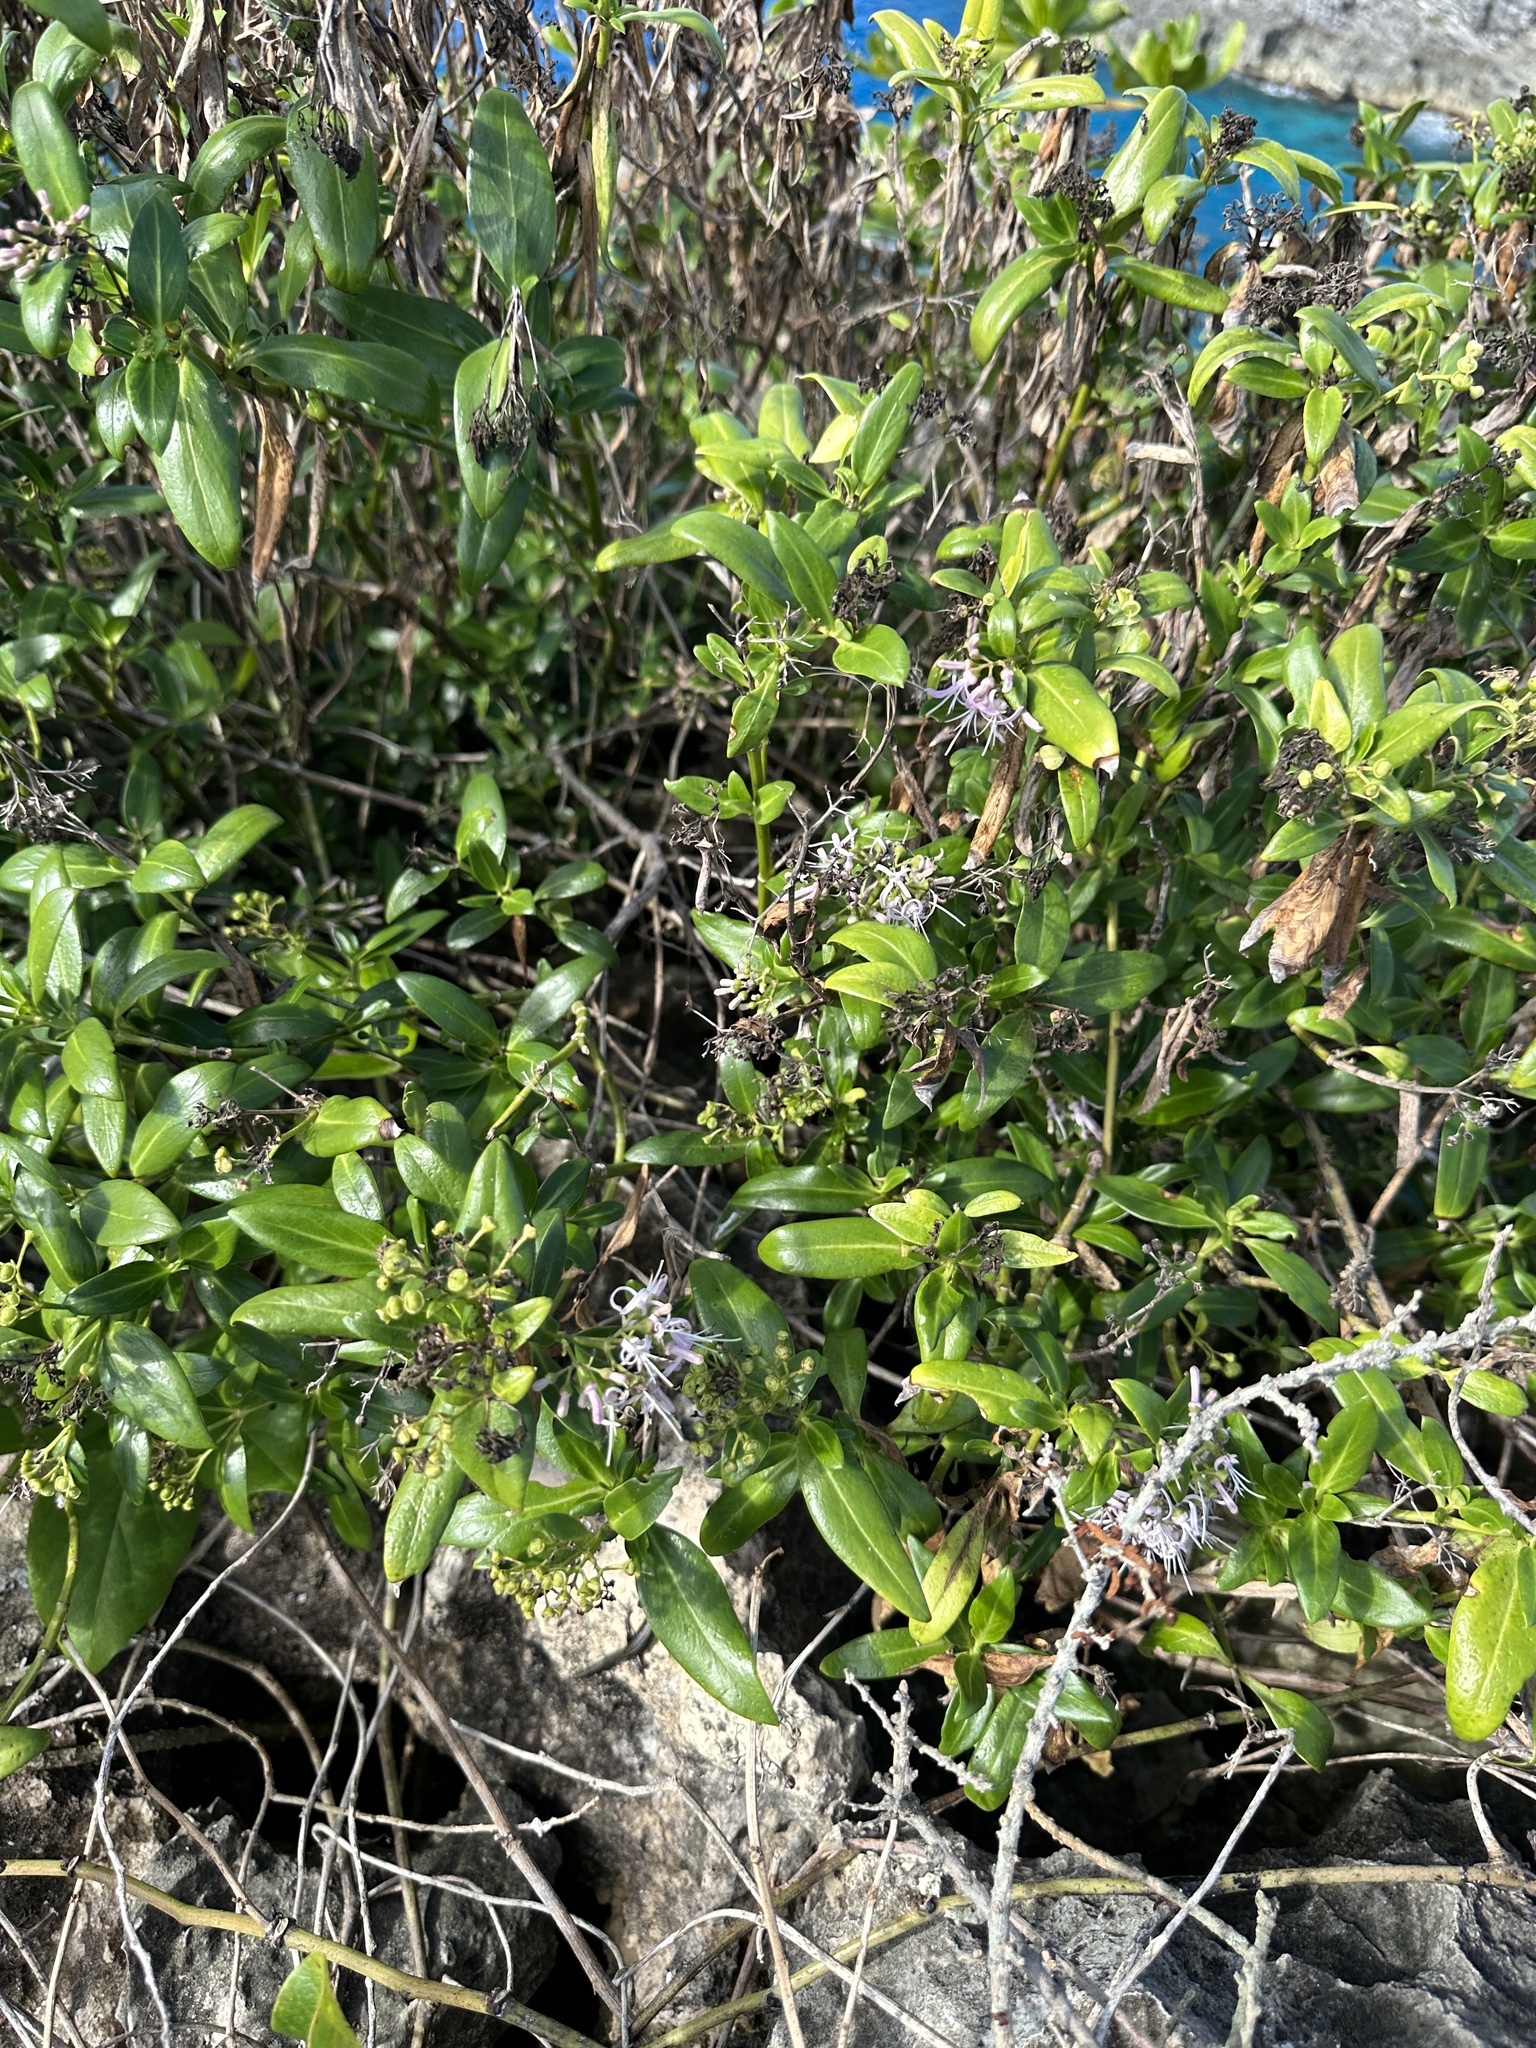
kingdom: Plantae
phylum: Tracheophyta
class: Magnoliopsida
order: Gentianales
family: Rubiaceae
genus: Leptopetalum
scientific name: Leptopetalum grayi
